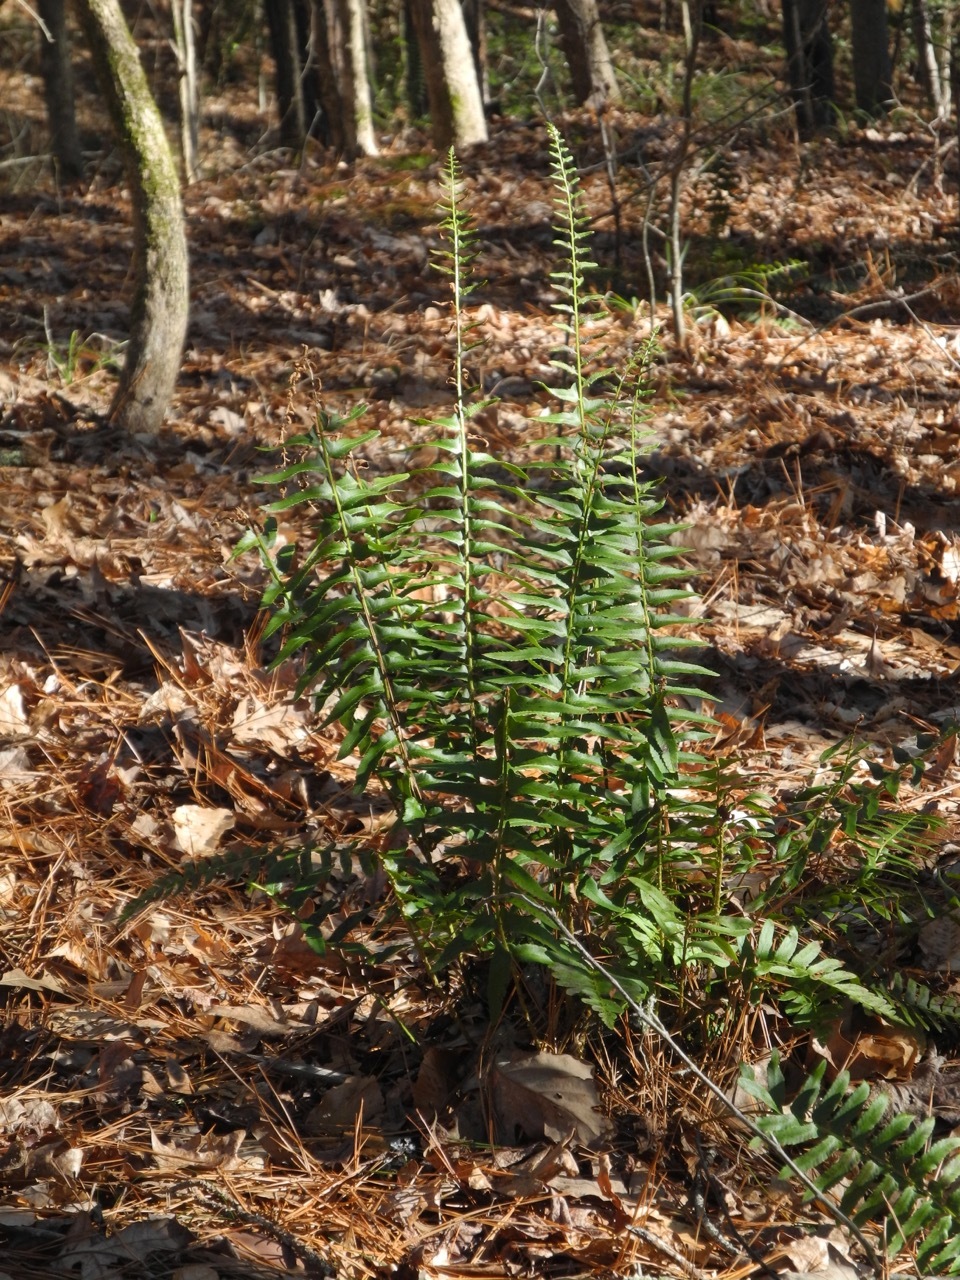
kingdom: Plantae
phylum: Tracheophyta
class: Polypodiopsida
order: Polypodiales
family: Dryopteridaceae
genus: Polystichum
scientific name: Polystichum acrostichoides
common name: Christmas fern
